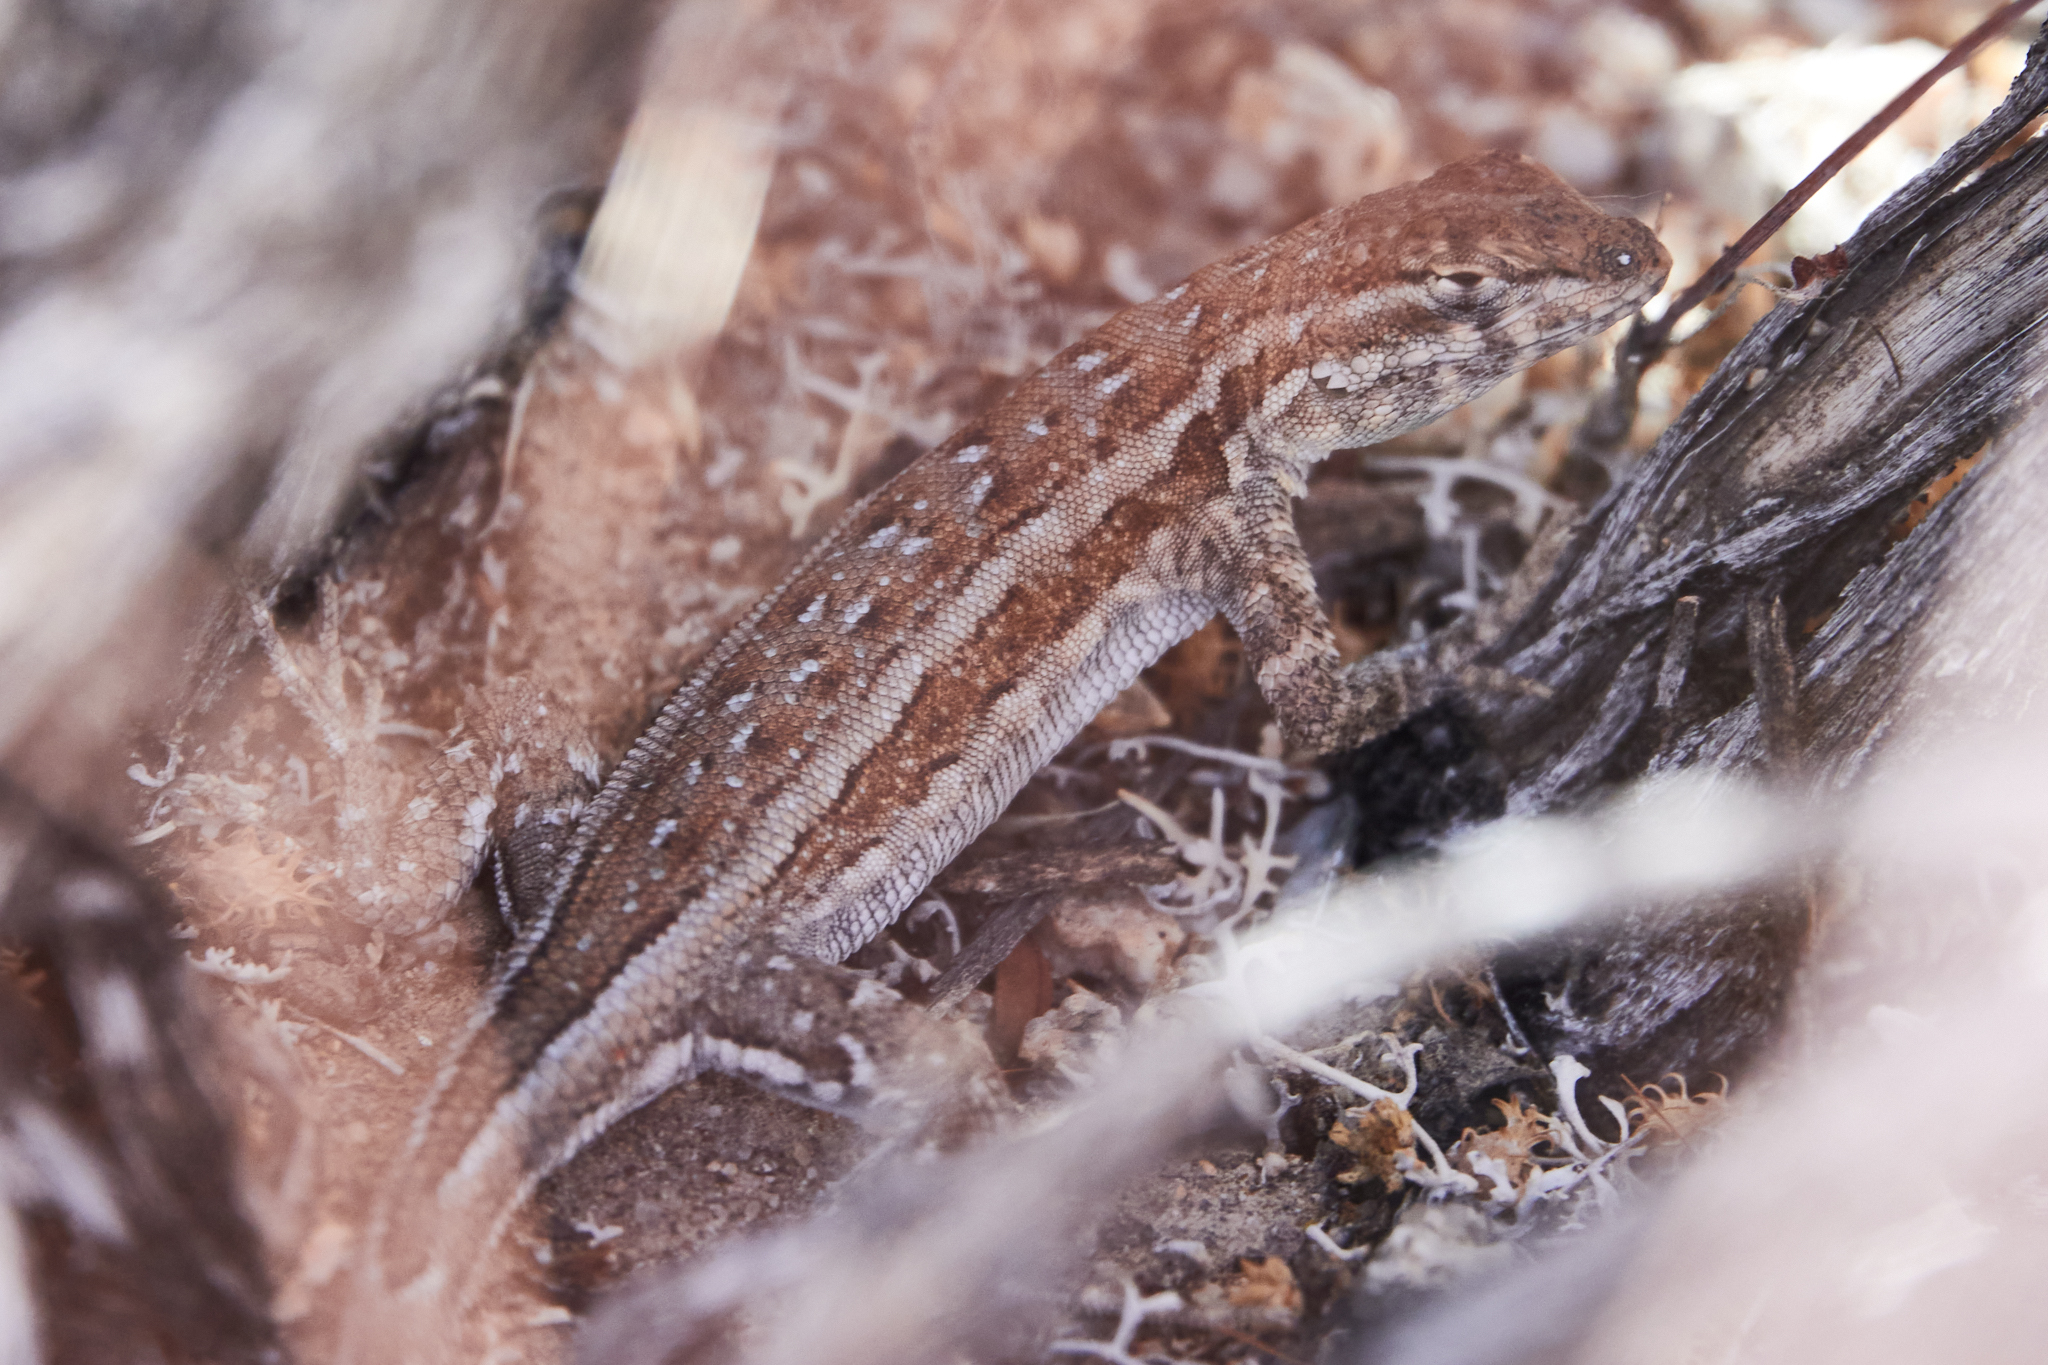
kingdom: Animalia
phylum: Chordata
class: Squamata
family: Phrynosomatidae
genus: Uta
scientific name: Uta stansburiana
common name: Side-blotched lizard
